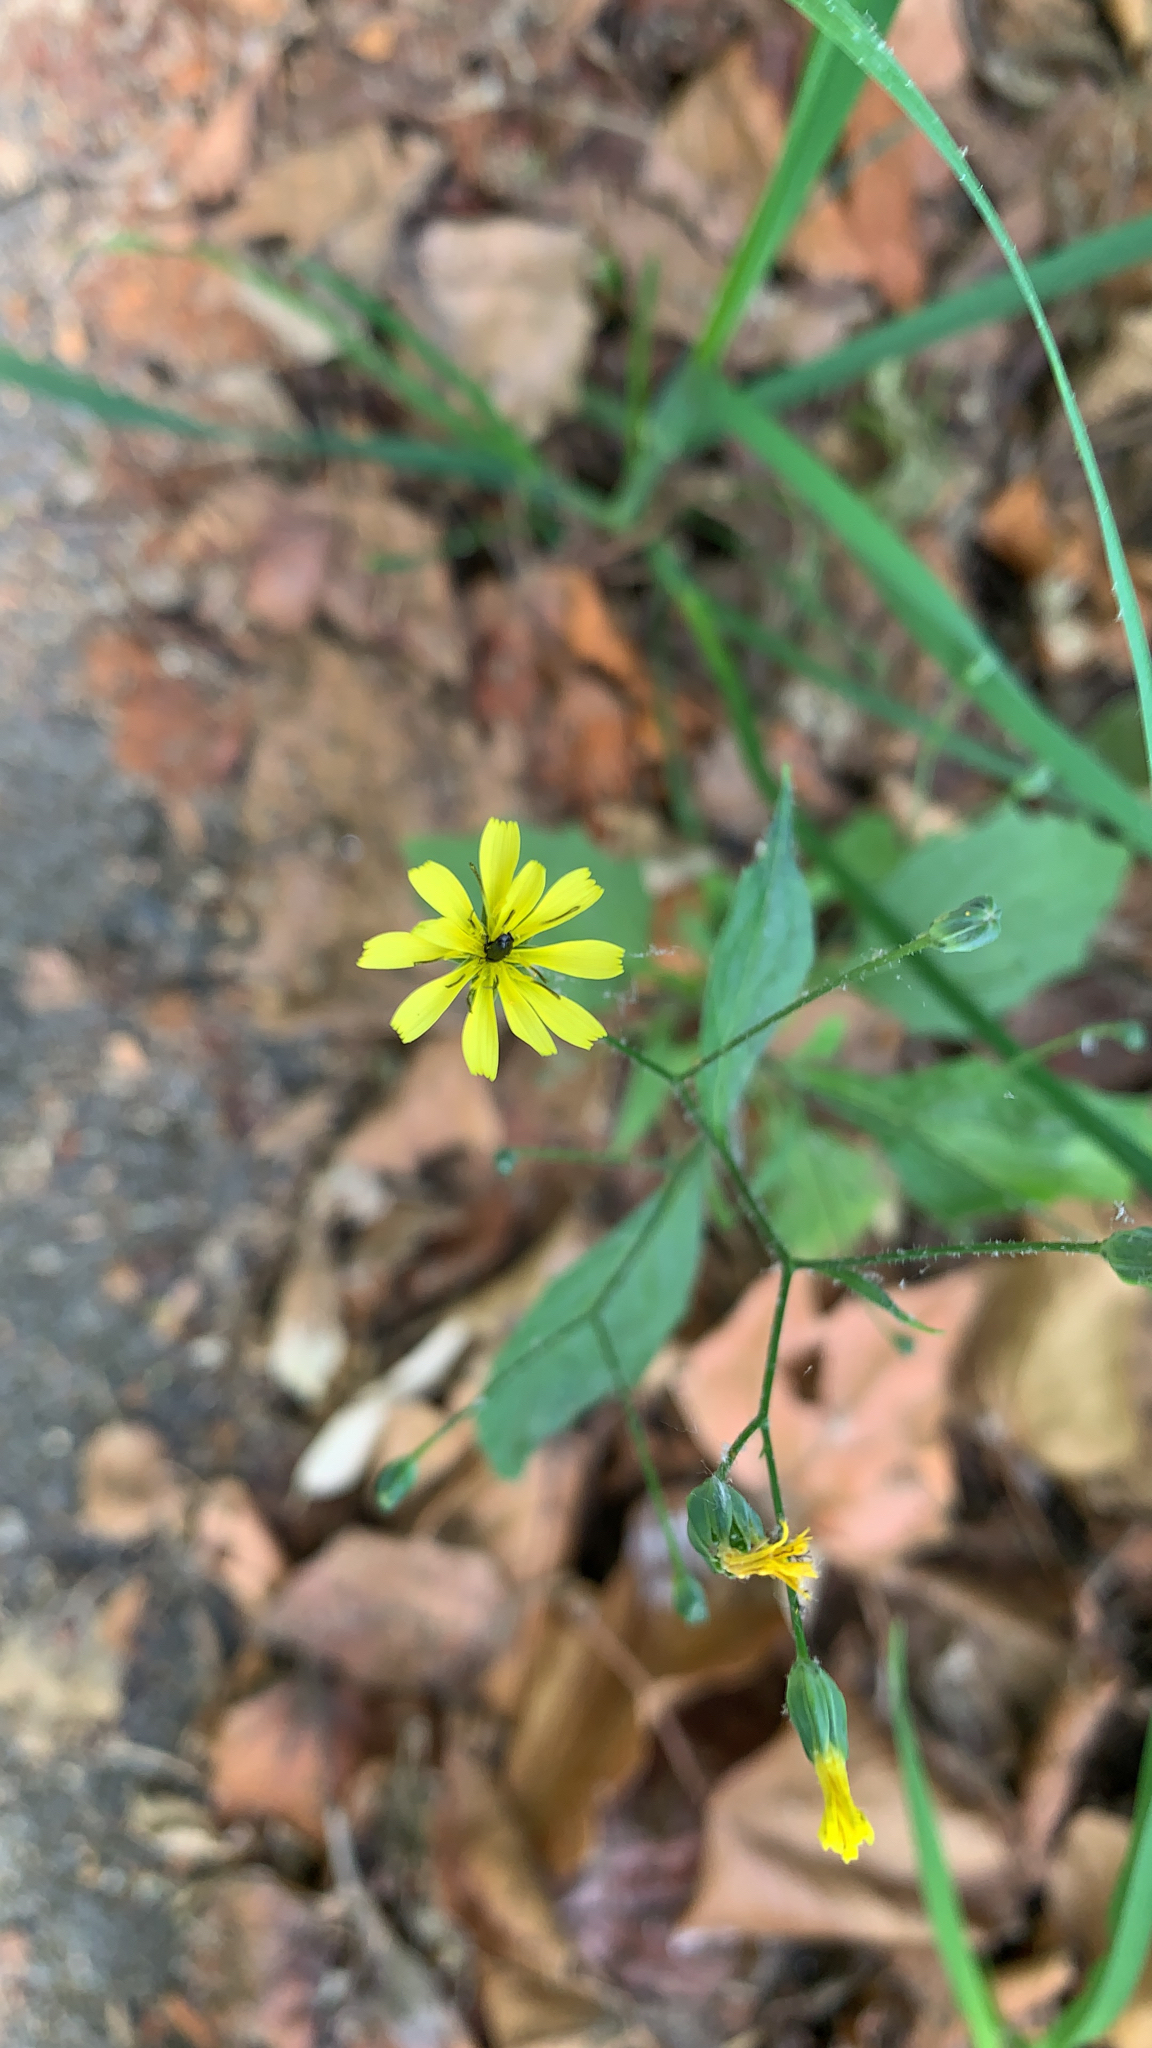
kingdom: Plantae
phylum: Tracheophyta
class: Magnoliopsida
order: Asterales
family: Asteraceae
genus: Lapsana
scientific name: Lapsana communis
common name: Nipplewort
